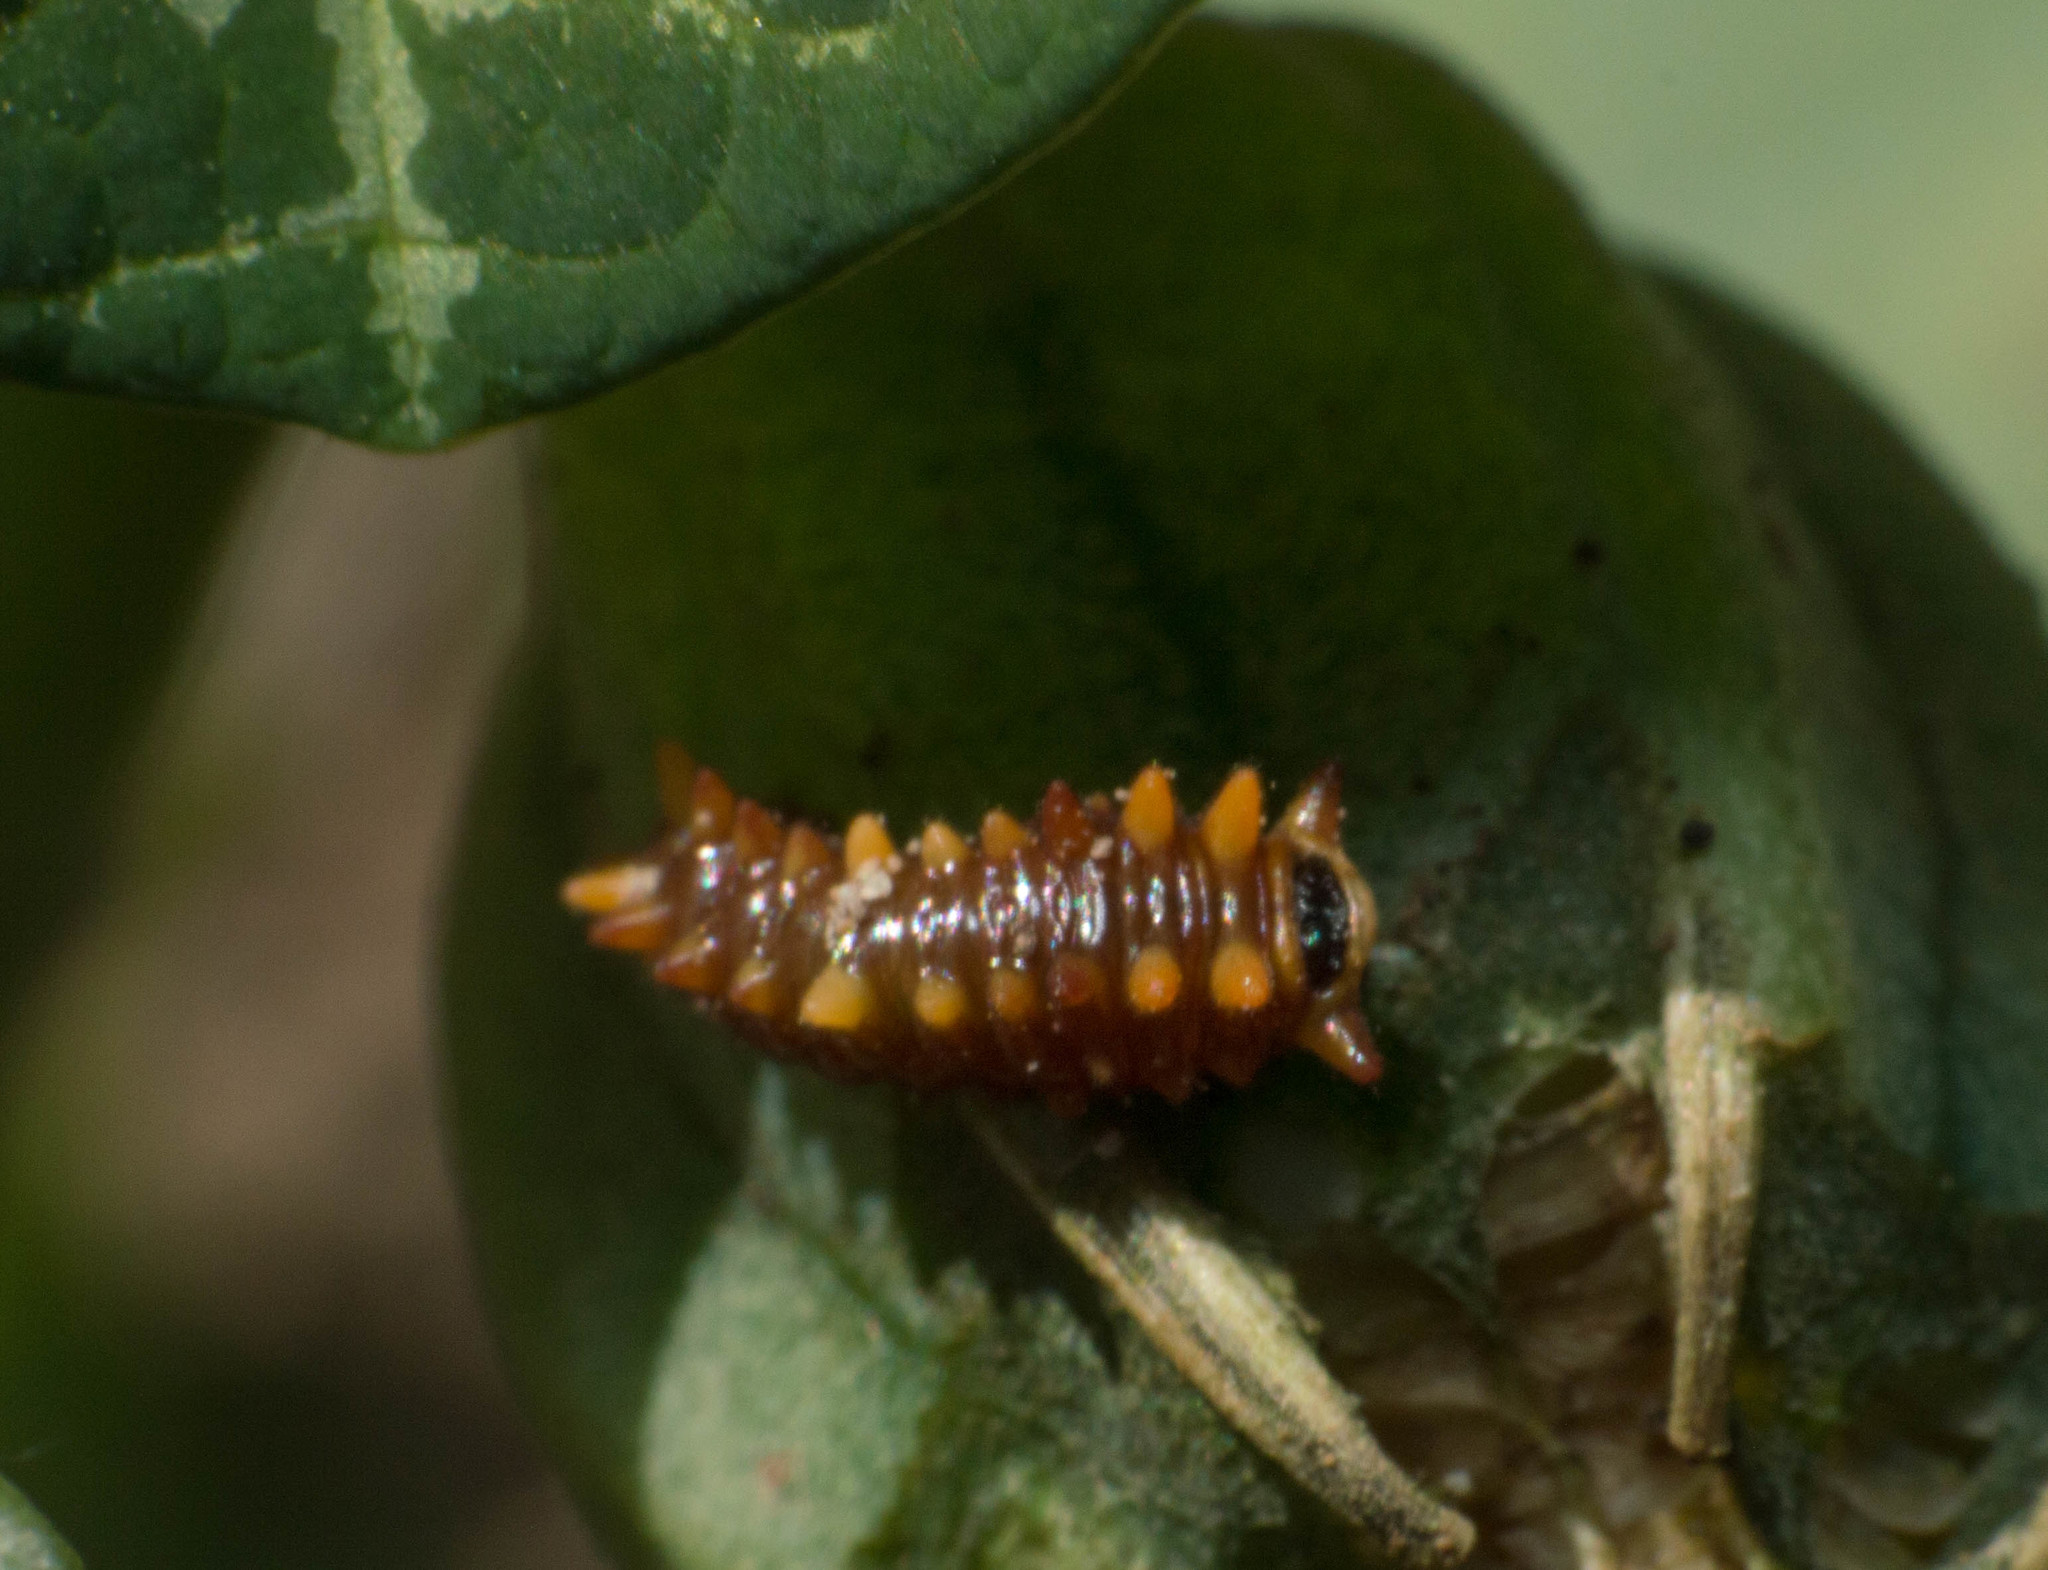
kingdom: Animalia
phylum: Arthropoda
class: Insecta
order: Lepidoptera
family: Papilionidae
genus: Battus
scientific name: Battus polydamas
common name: Polydamas swallowtail
